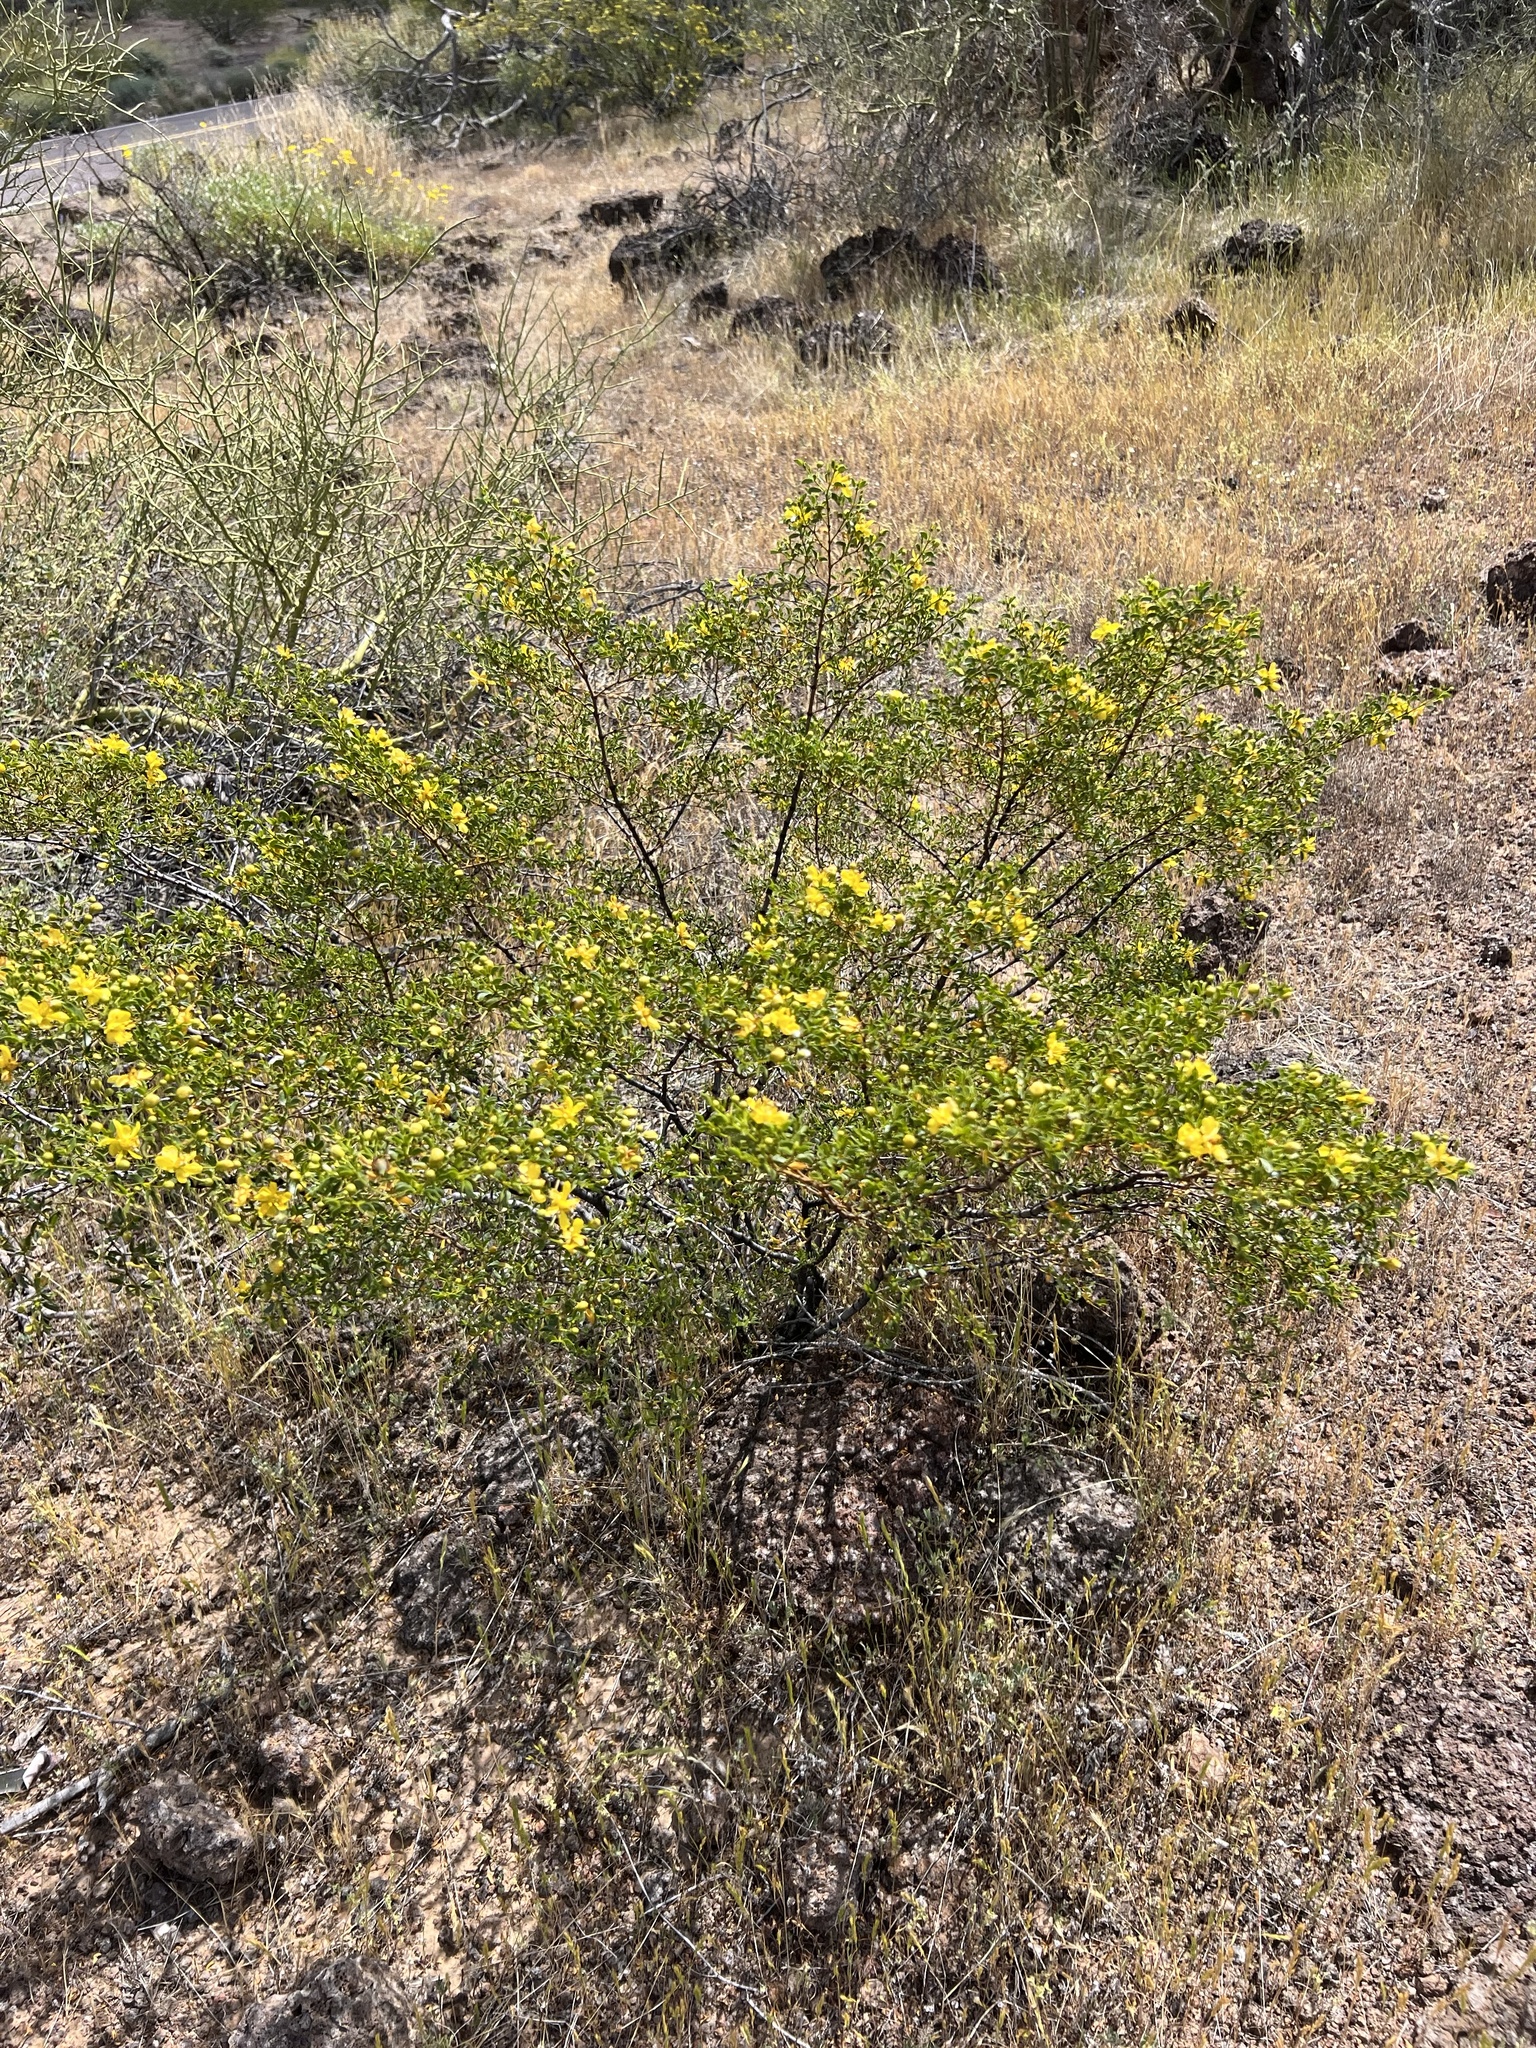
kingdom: Plantae
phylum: Tracheophyta
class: Magnoliopsida
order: Zygophyllales
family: Zygophyllaceae
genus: Larrea
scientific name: Larrea tridentata
